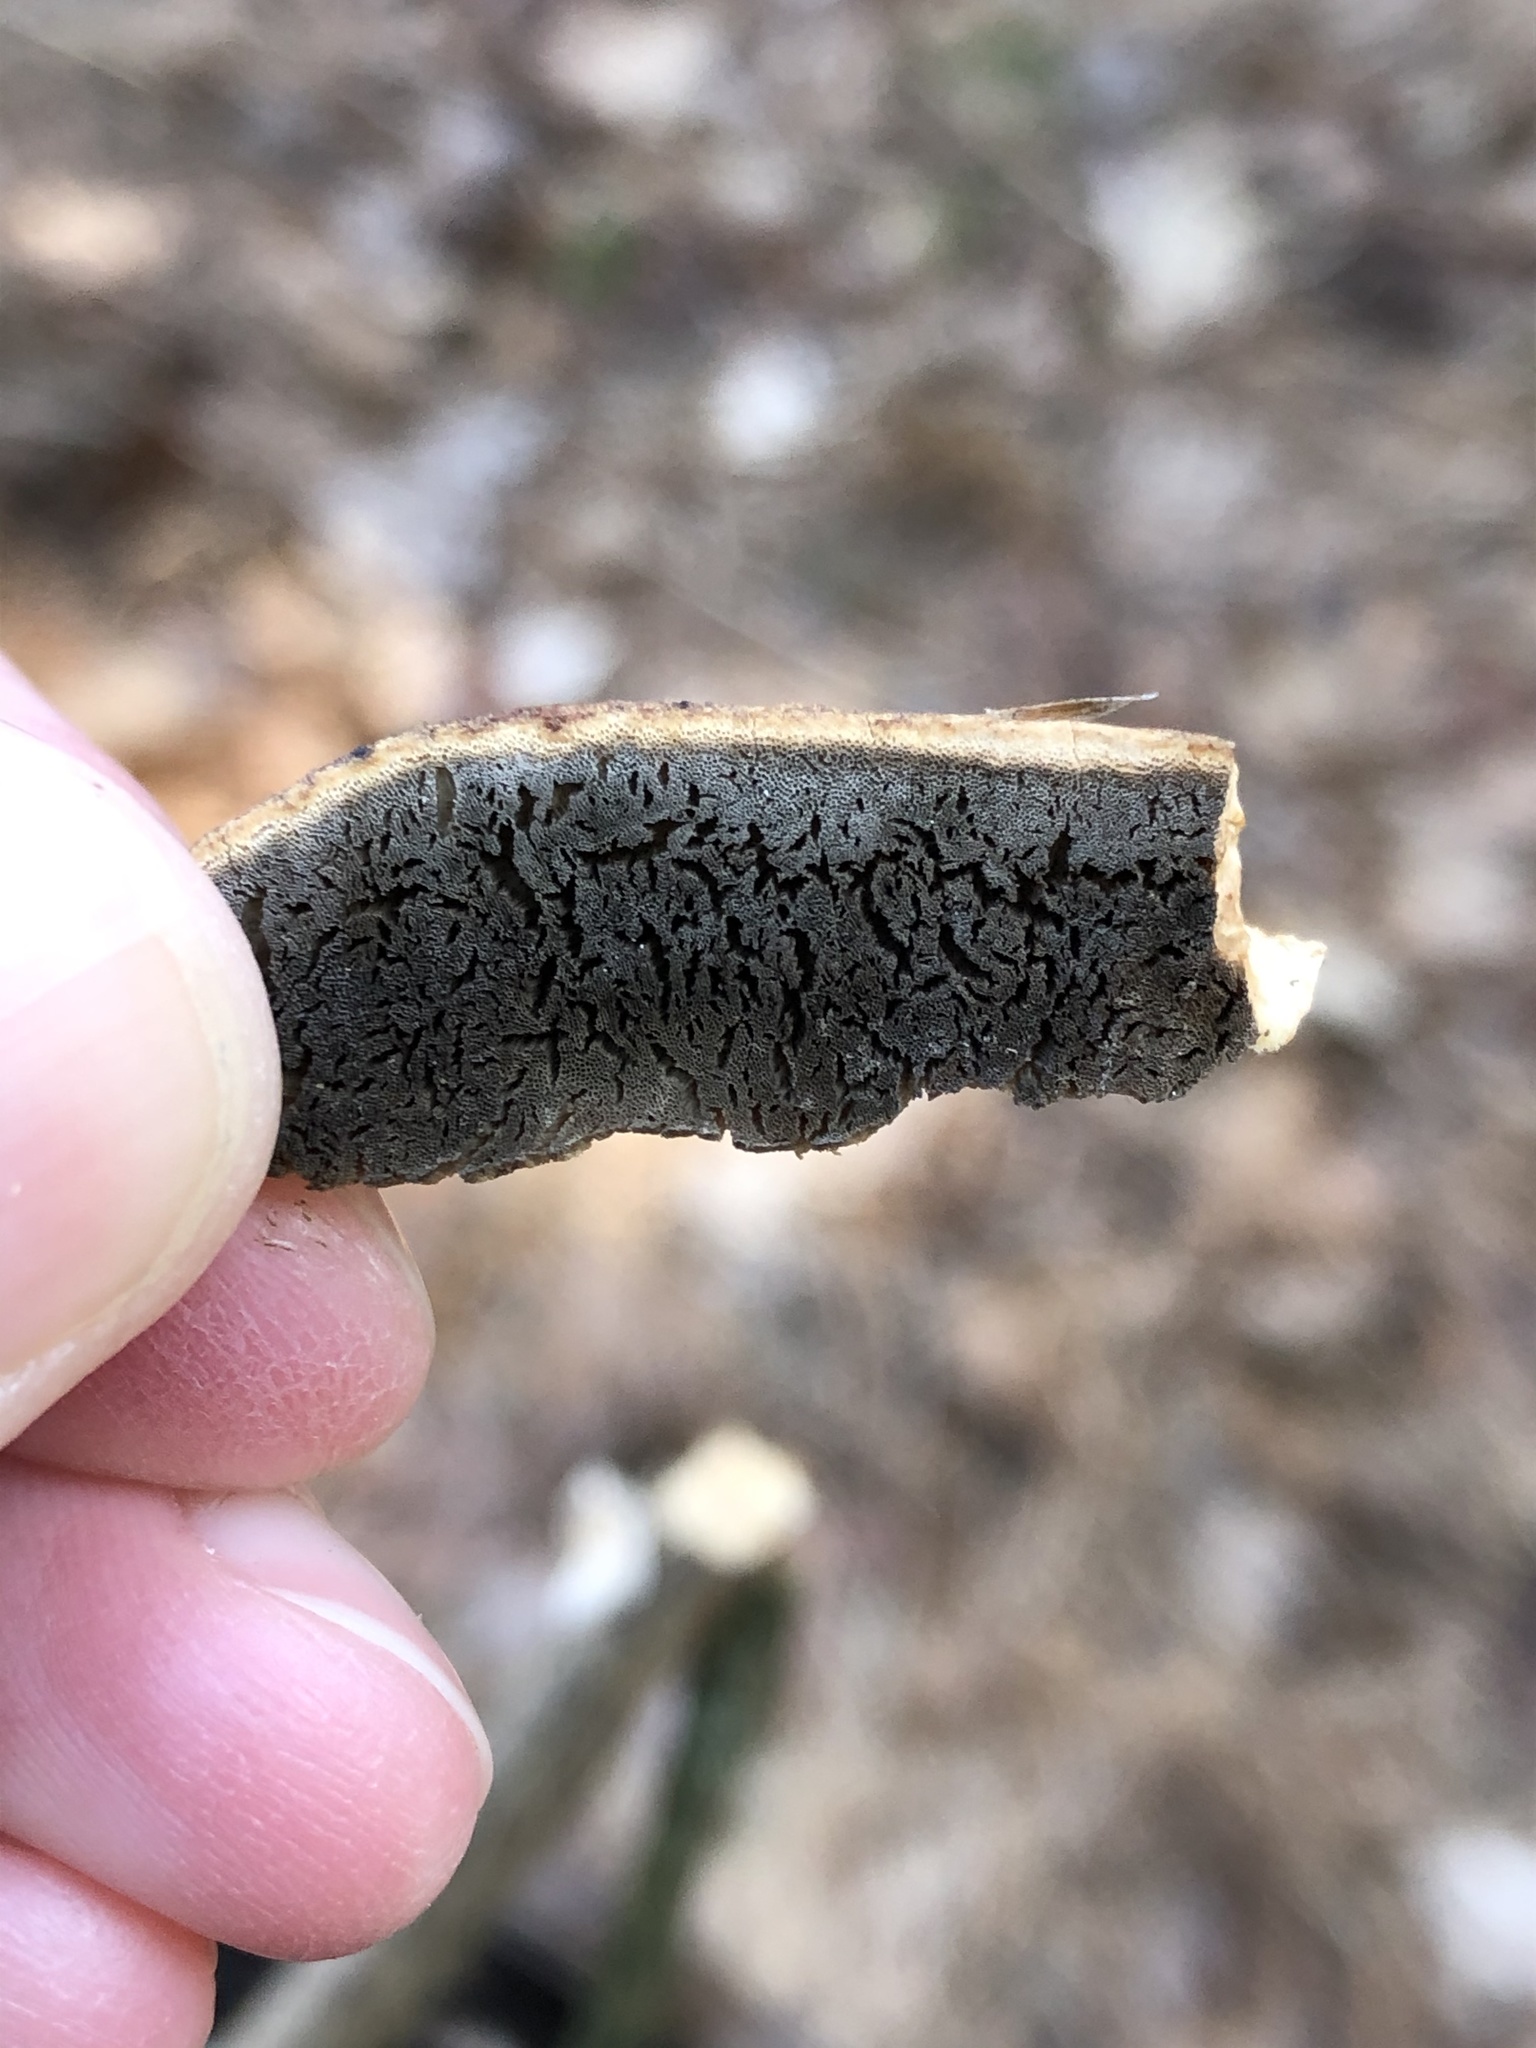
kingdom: Fungi
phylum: Basidiomycota
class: Agaricomycetes
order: Polyporales
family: Phanerochaetaceae
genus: Bjerkandera
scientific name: Bjerkandera adusta
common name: Smoky bracket
